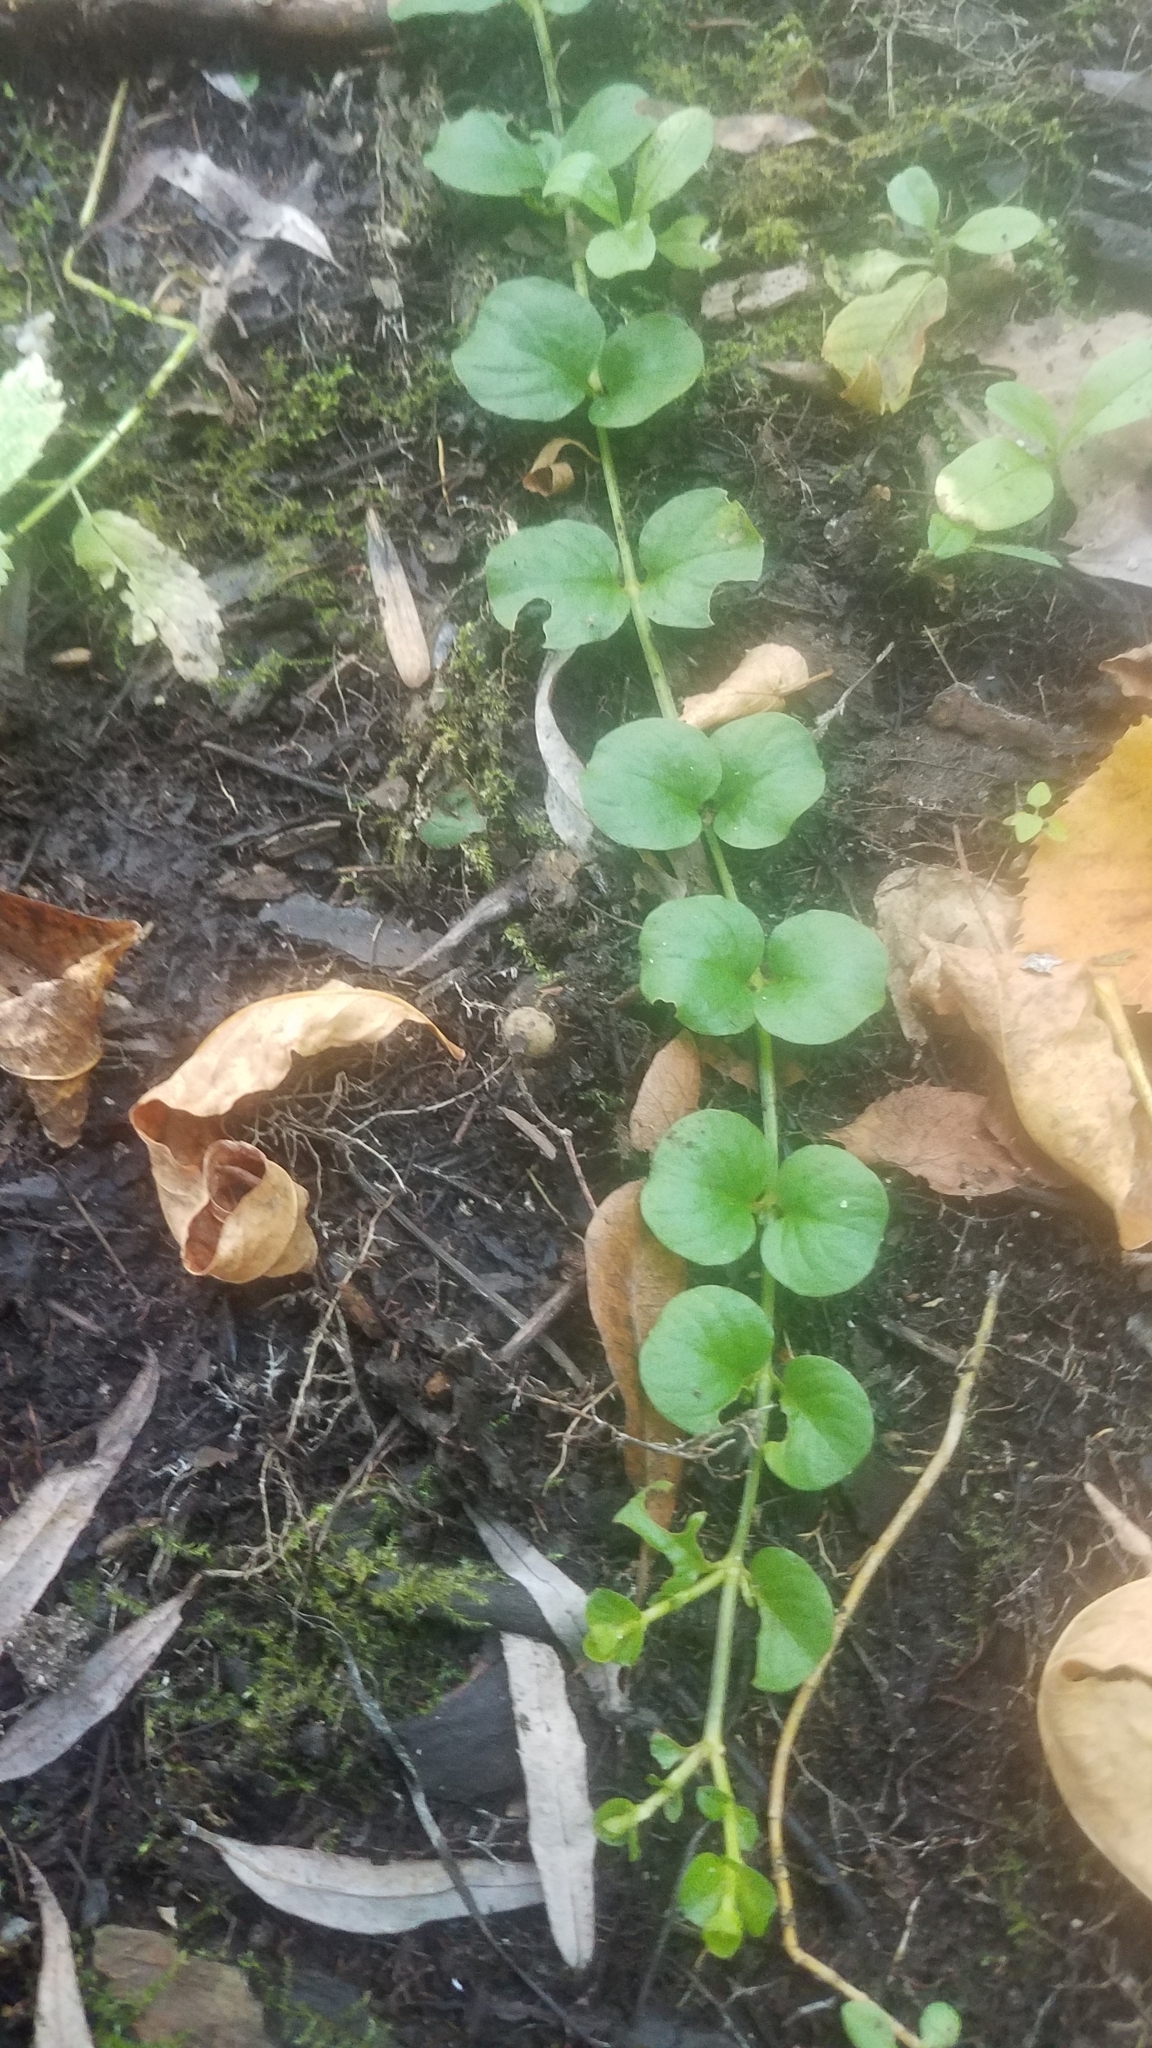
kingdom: Plantae
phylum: Tracheophyta
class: Magnoliopsida
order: Ericales
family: Primulaceae
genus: Lysimachia
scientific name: Lysimachia nummularia
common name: Moneywort
